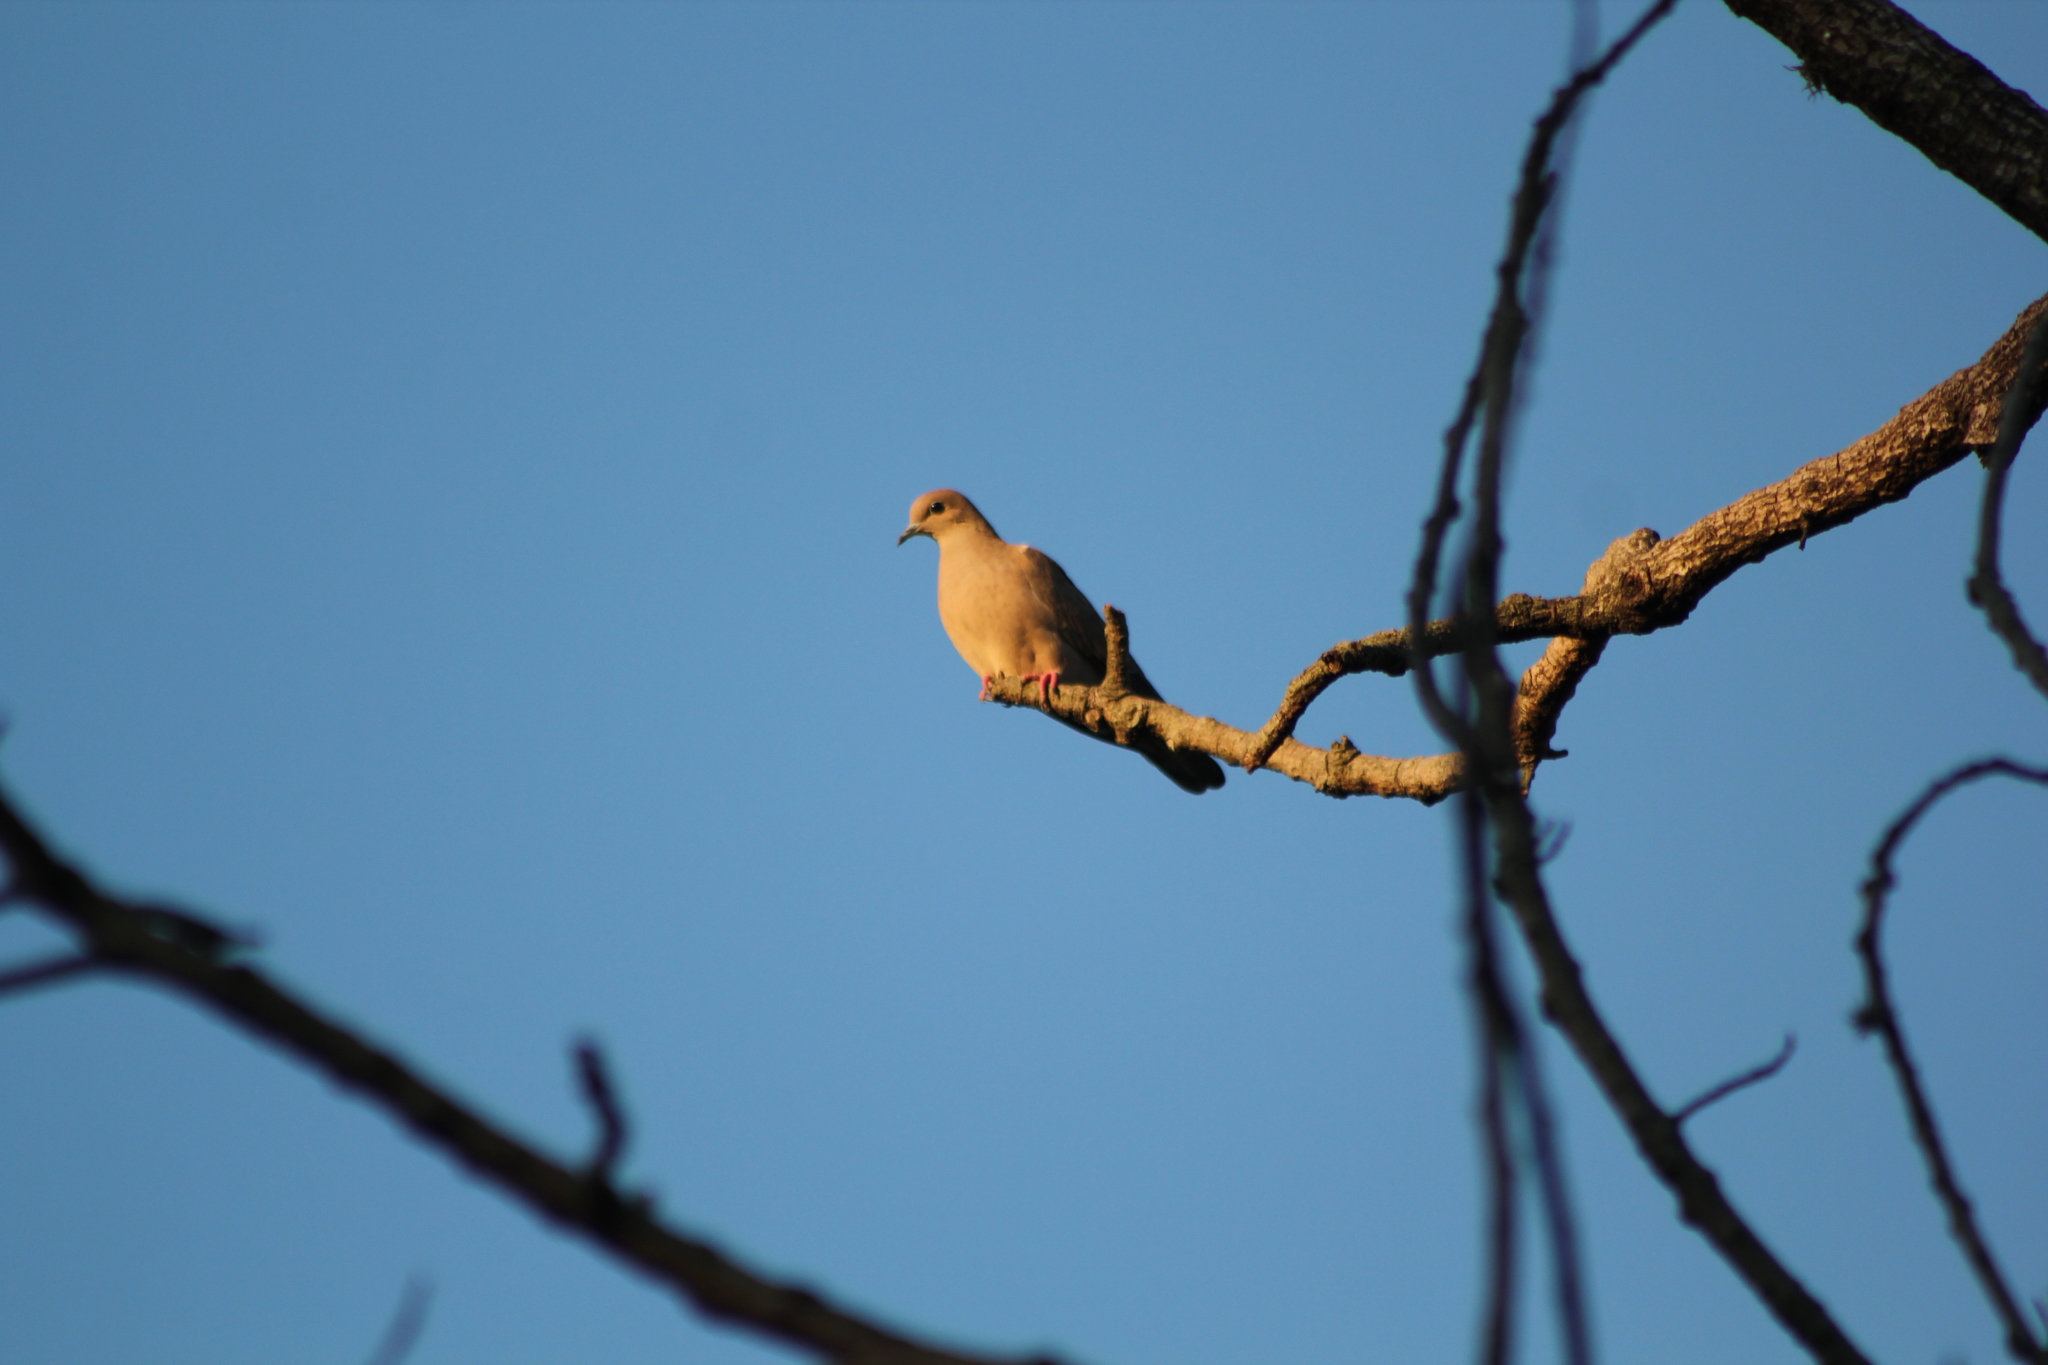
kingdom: Animalia
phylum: Chordata
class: Aves
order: Columbiformes
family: Columbidae
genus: Zenaida
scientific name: Zenaida auriculata
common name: Eared dove
